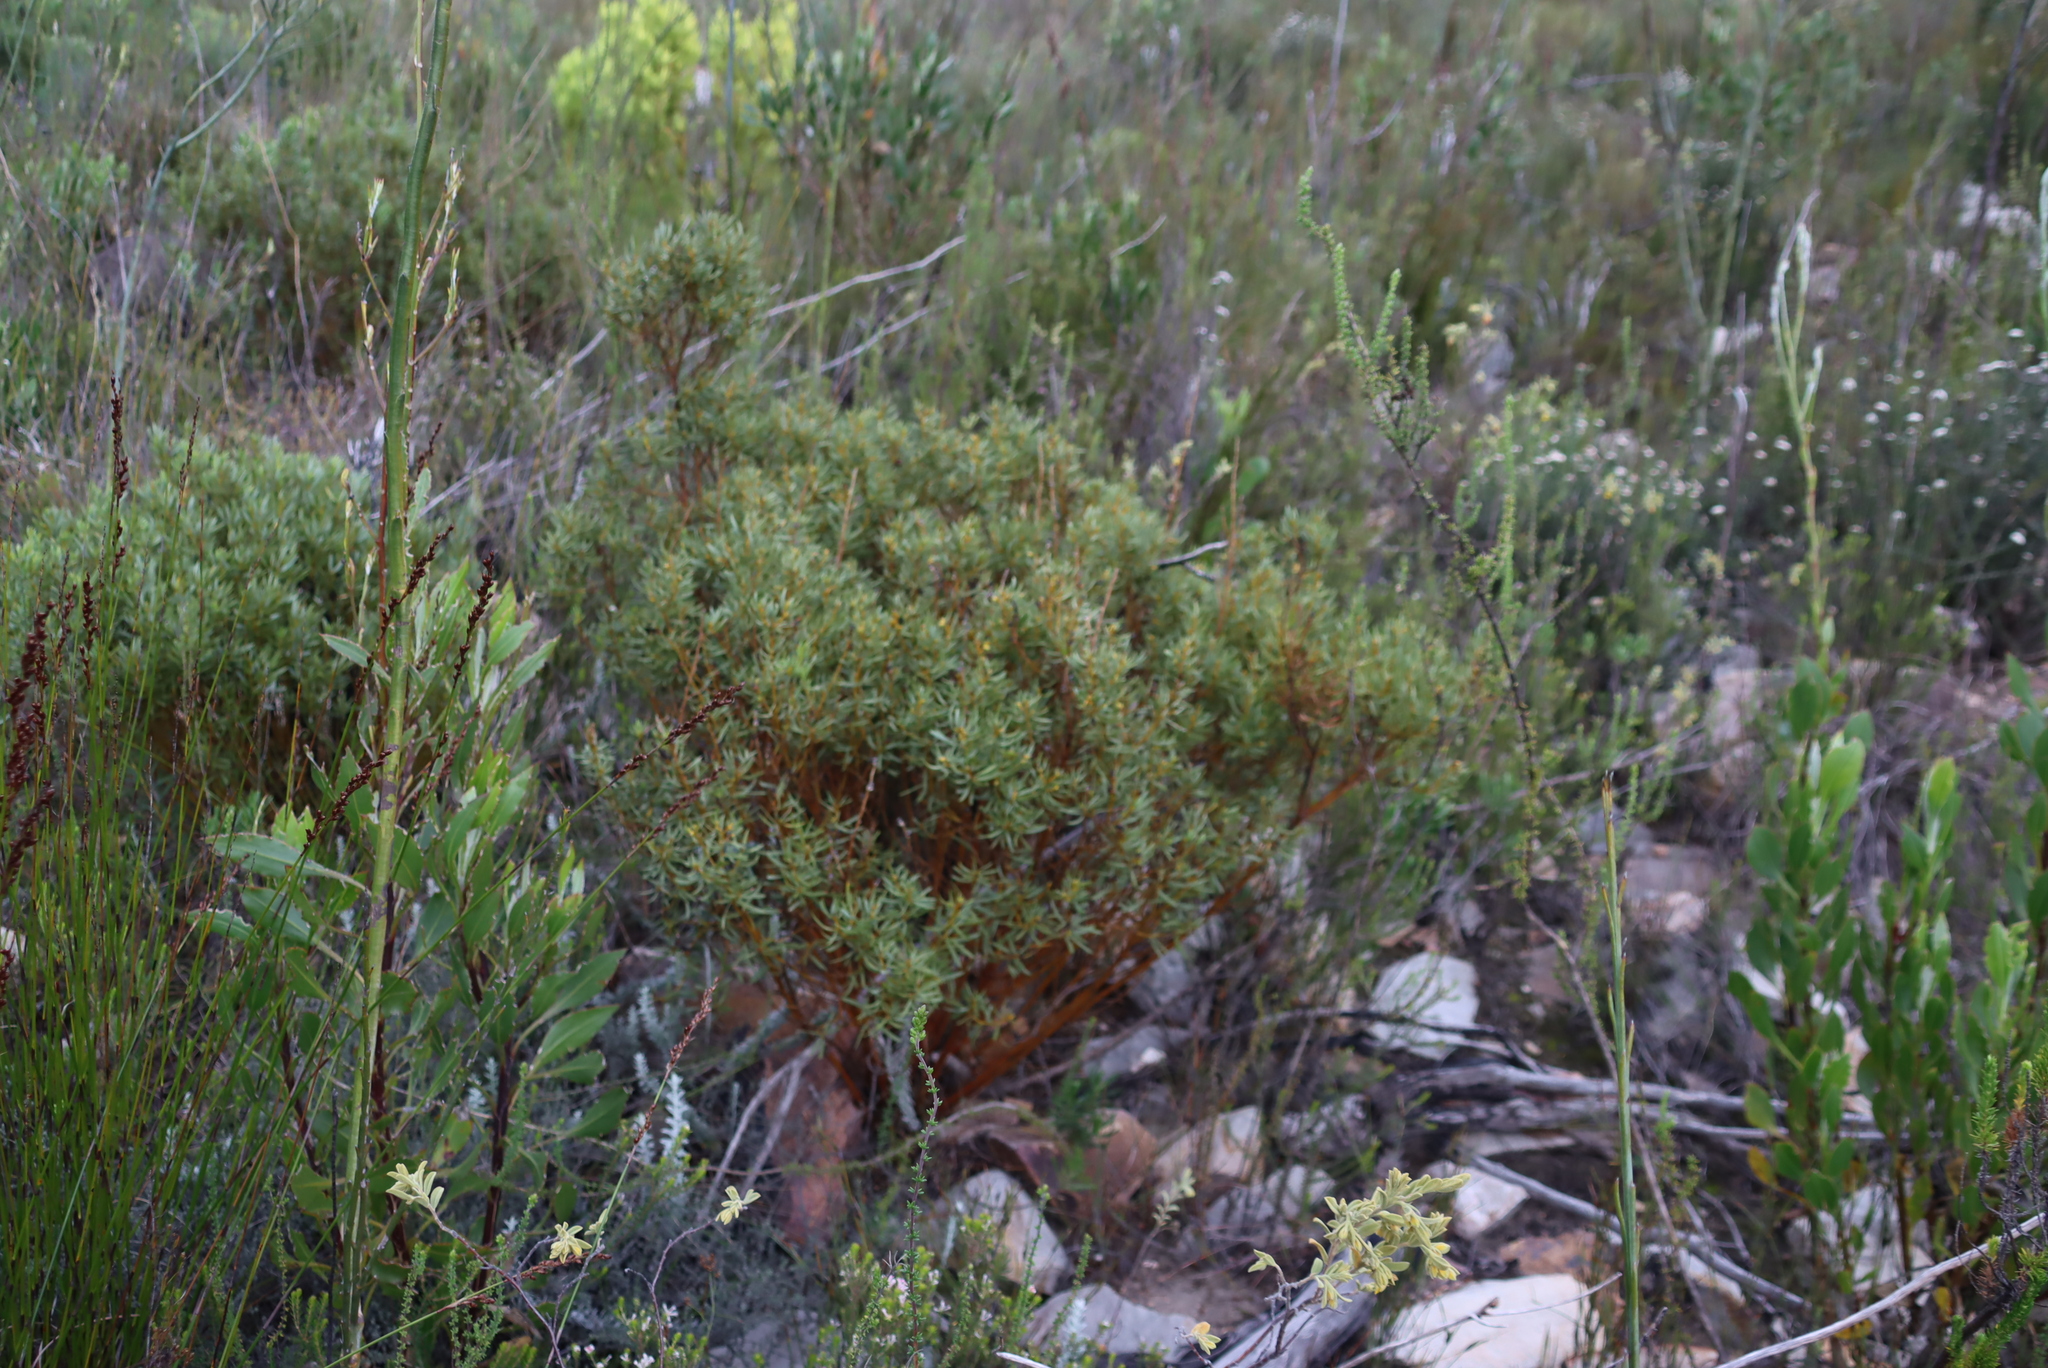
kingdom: Plantae
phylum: Tracheophyta
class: Magnoliopsida
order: Fabales
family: Fabaceae
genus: Cyclopia
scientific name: Cyclopia intermedia
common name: Mountain tea
